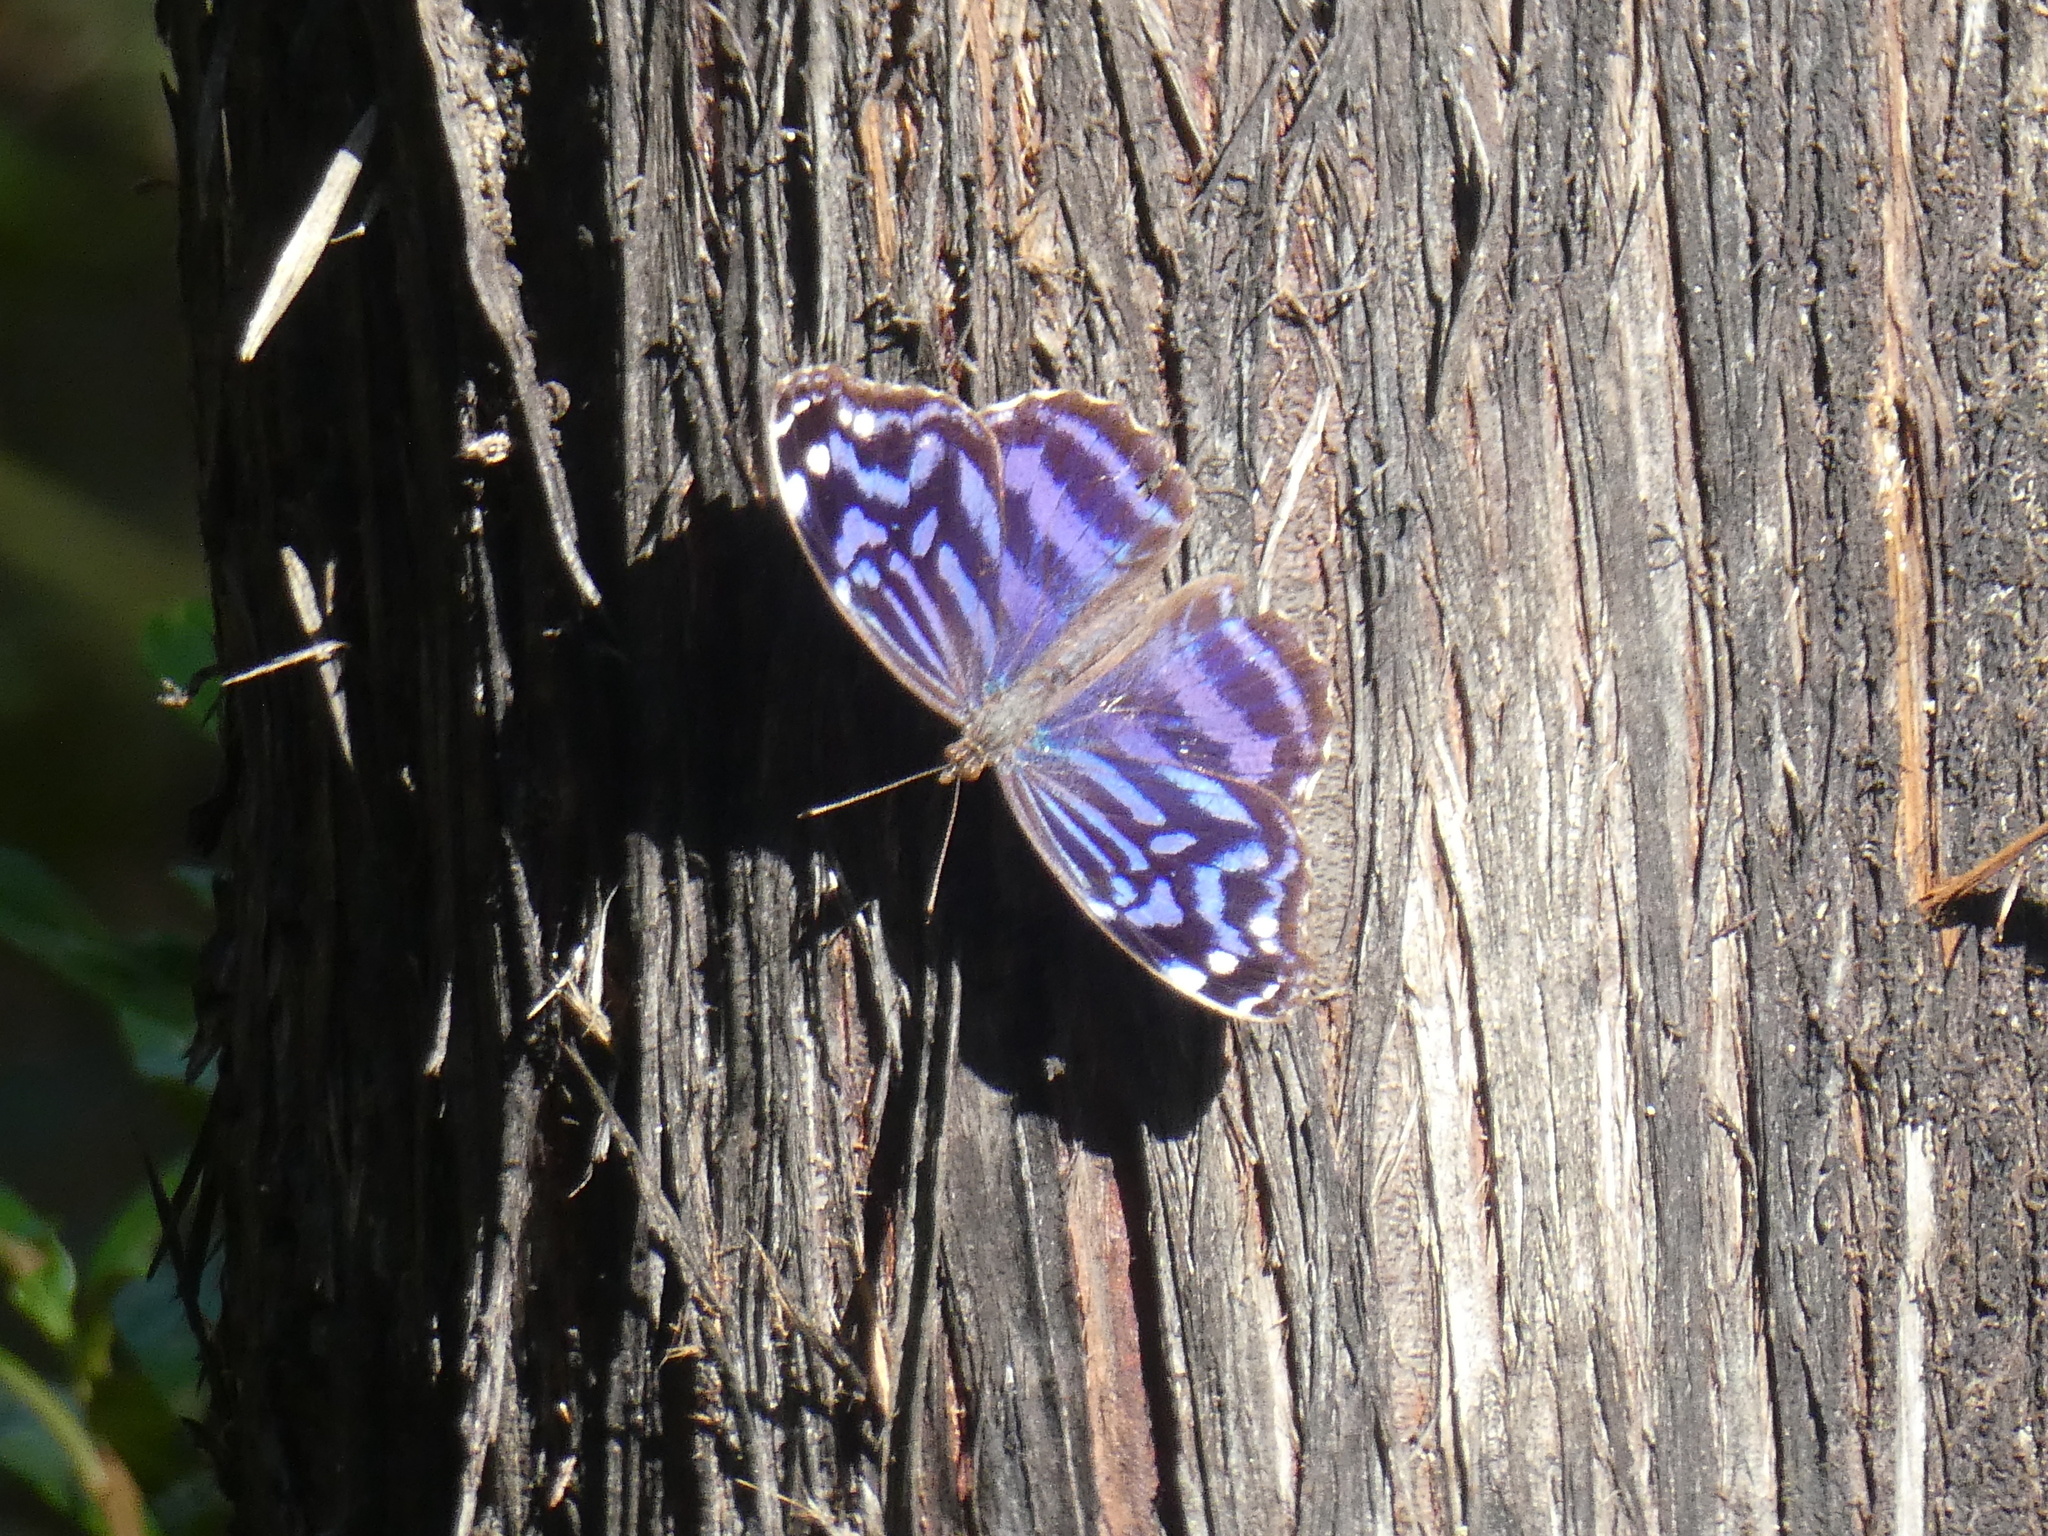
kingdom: Animalia
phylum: Arthropoda
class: Insecta
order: Lepidoptera
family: Nymphalidae
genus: Myscelia
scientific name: Myscelia ethusa
